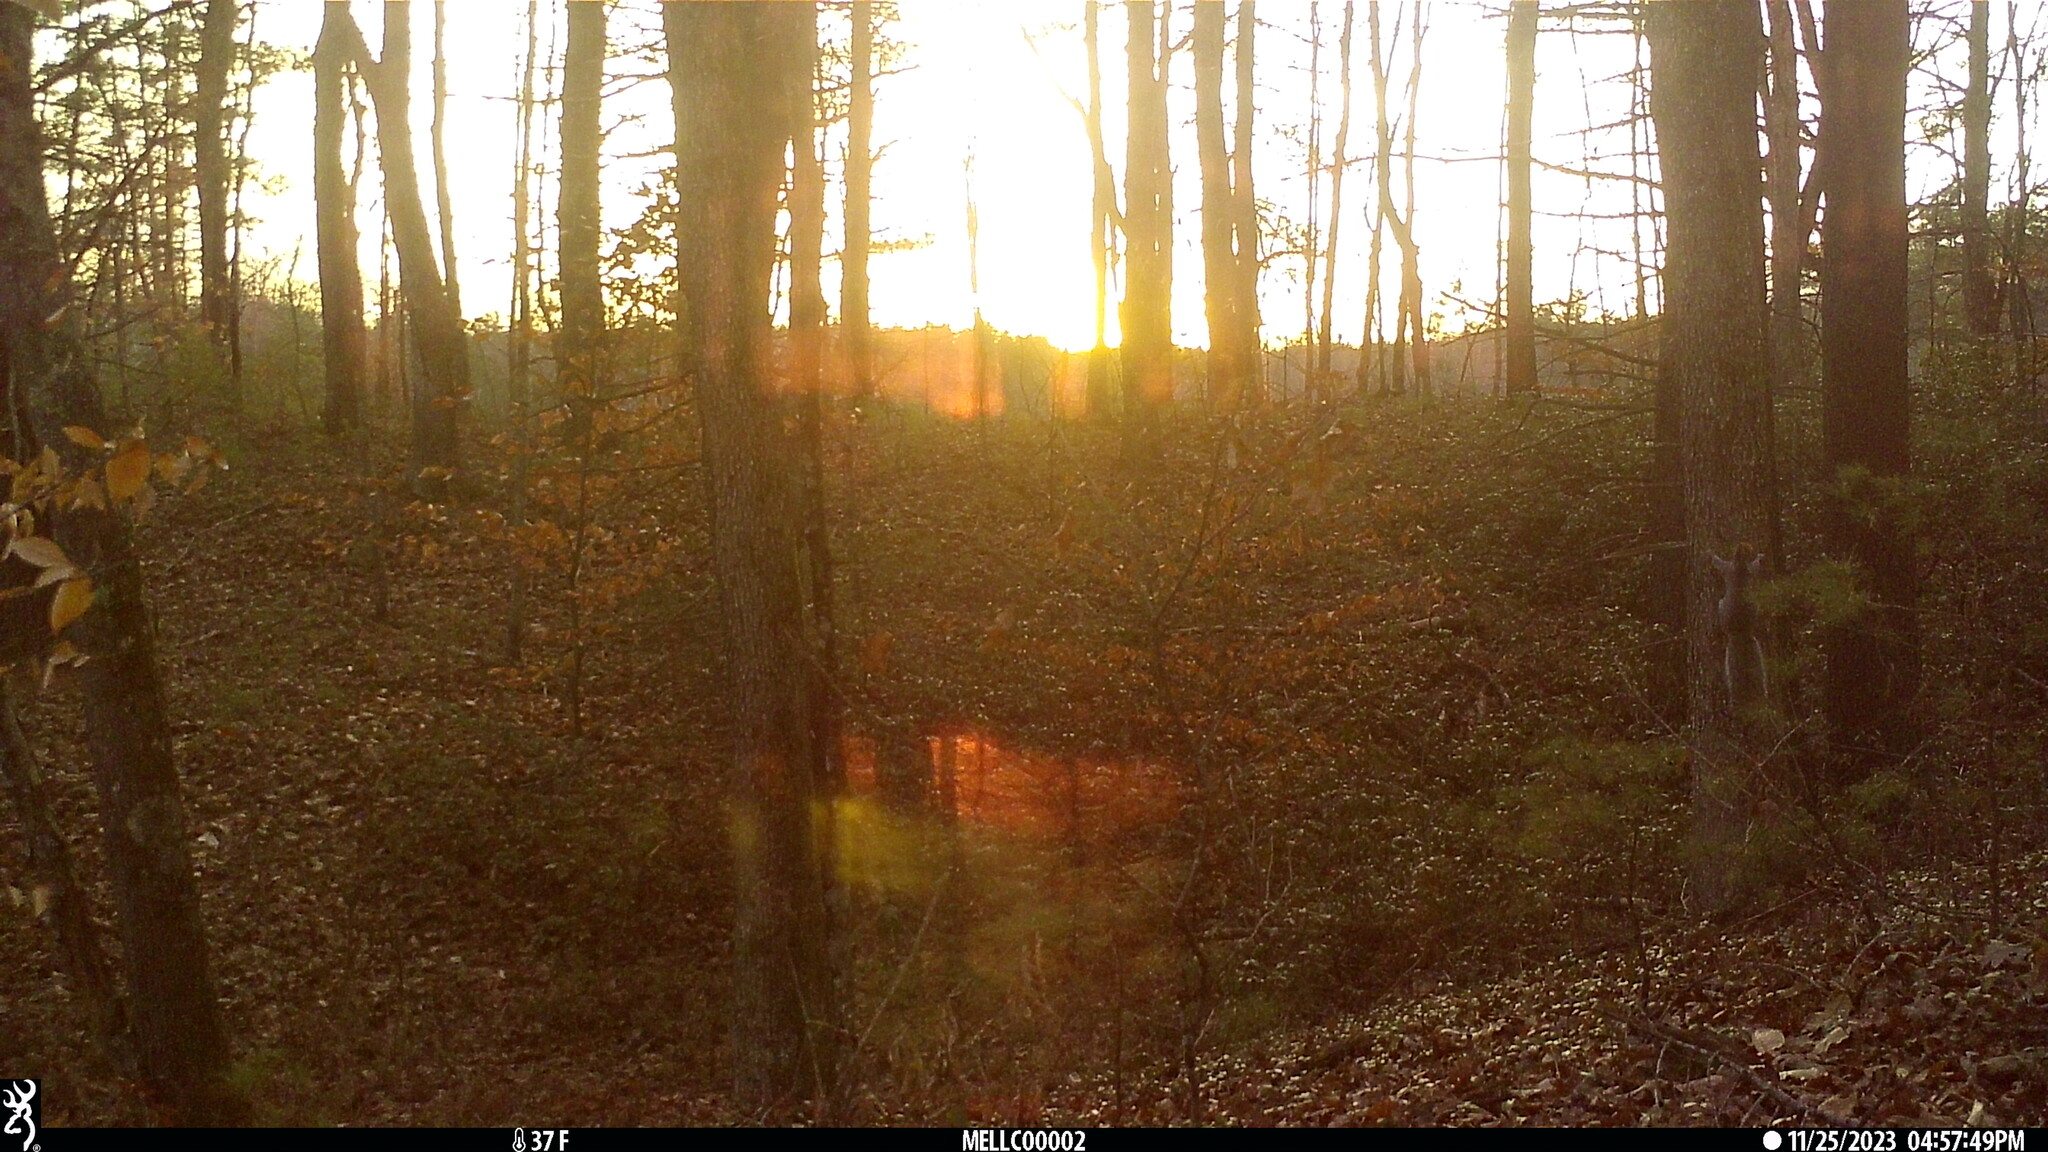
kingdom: Animalia
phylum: Chordata
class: Mammalia
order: Rodentia
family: Sciuridae
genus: Sciurus
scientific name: Sciurus carolinensis
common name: Eastern gray squirrel
